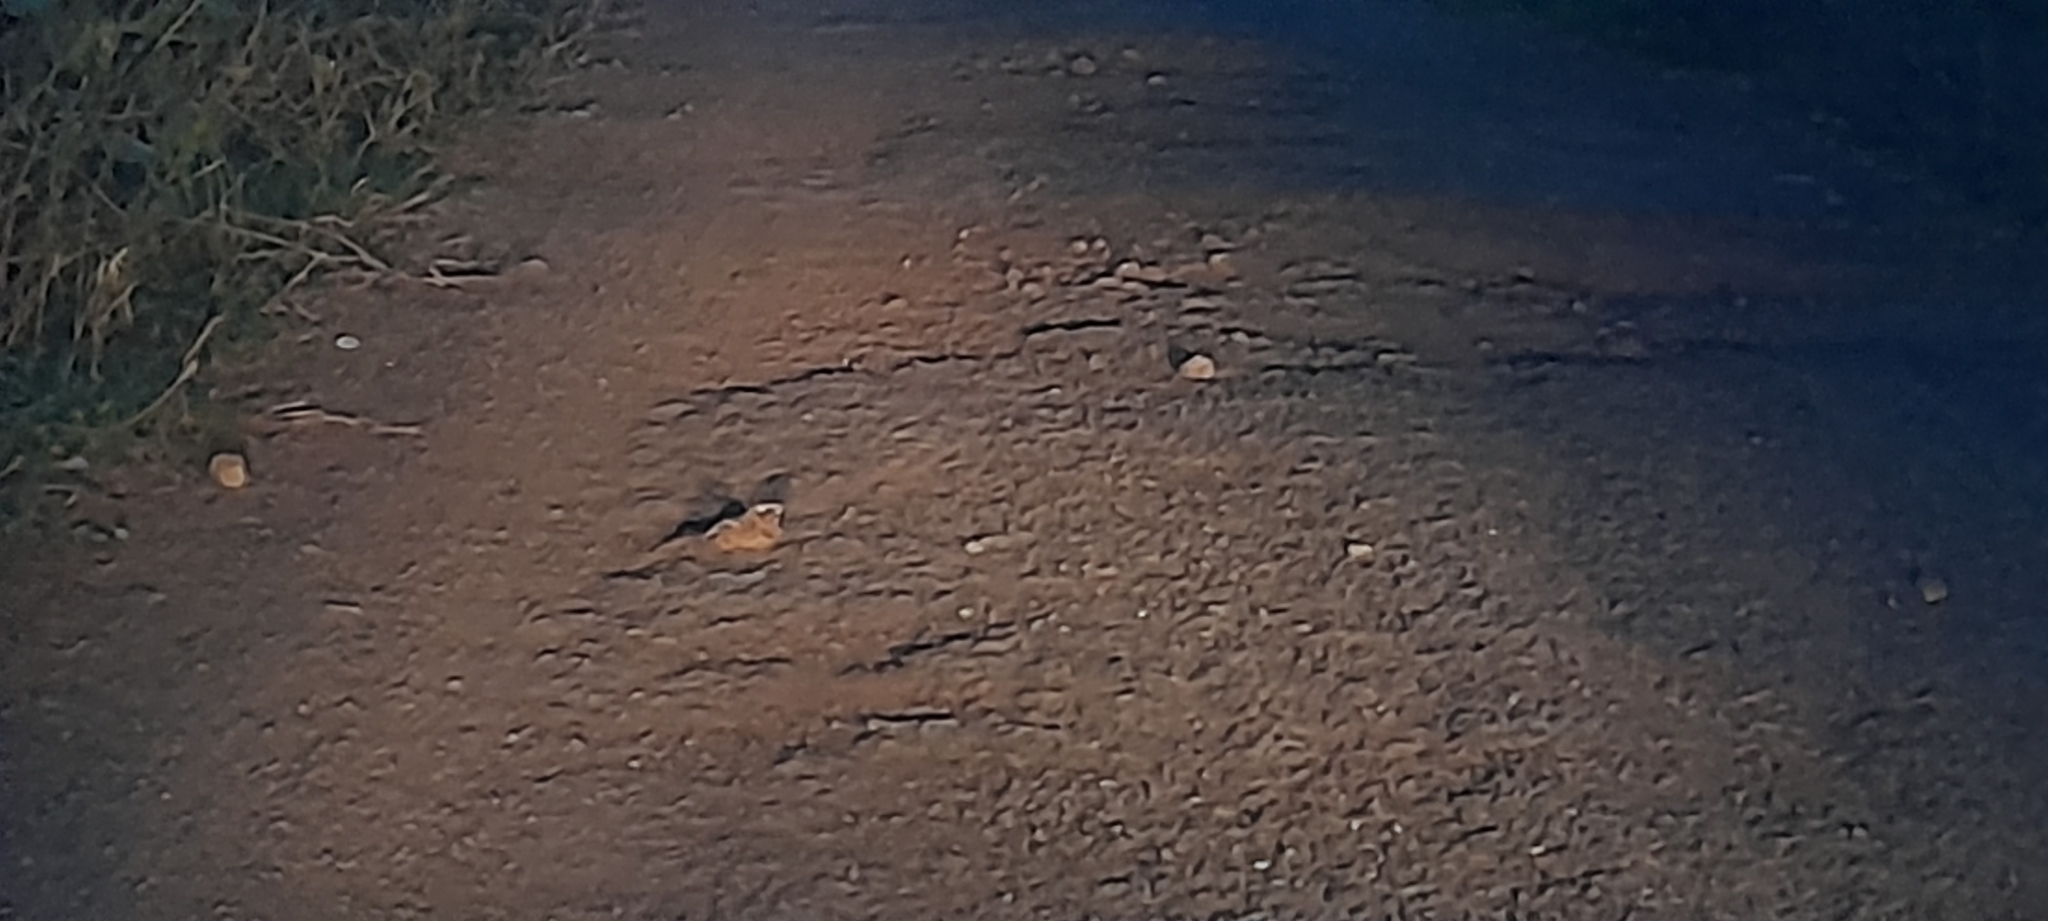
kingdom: Animalia
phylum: Chordata
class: Aves
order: Caprimulgiformes
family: Caprimulgidae
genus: Caprimulgus
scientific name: Caprimulgus asiaticus
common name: Indian nightjar
